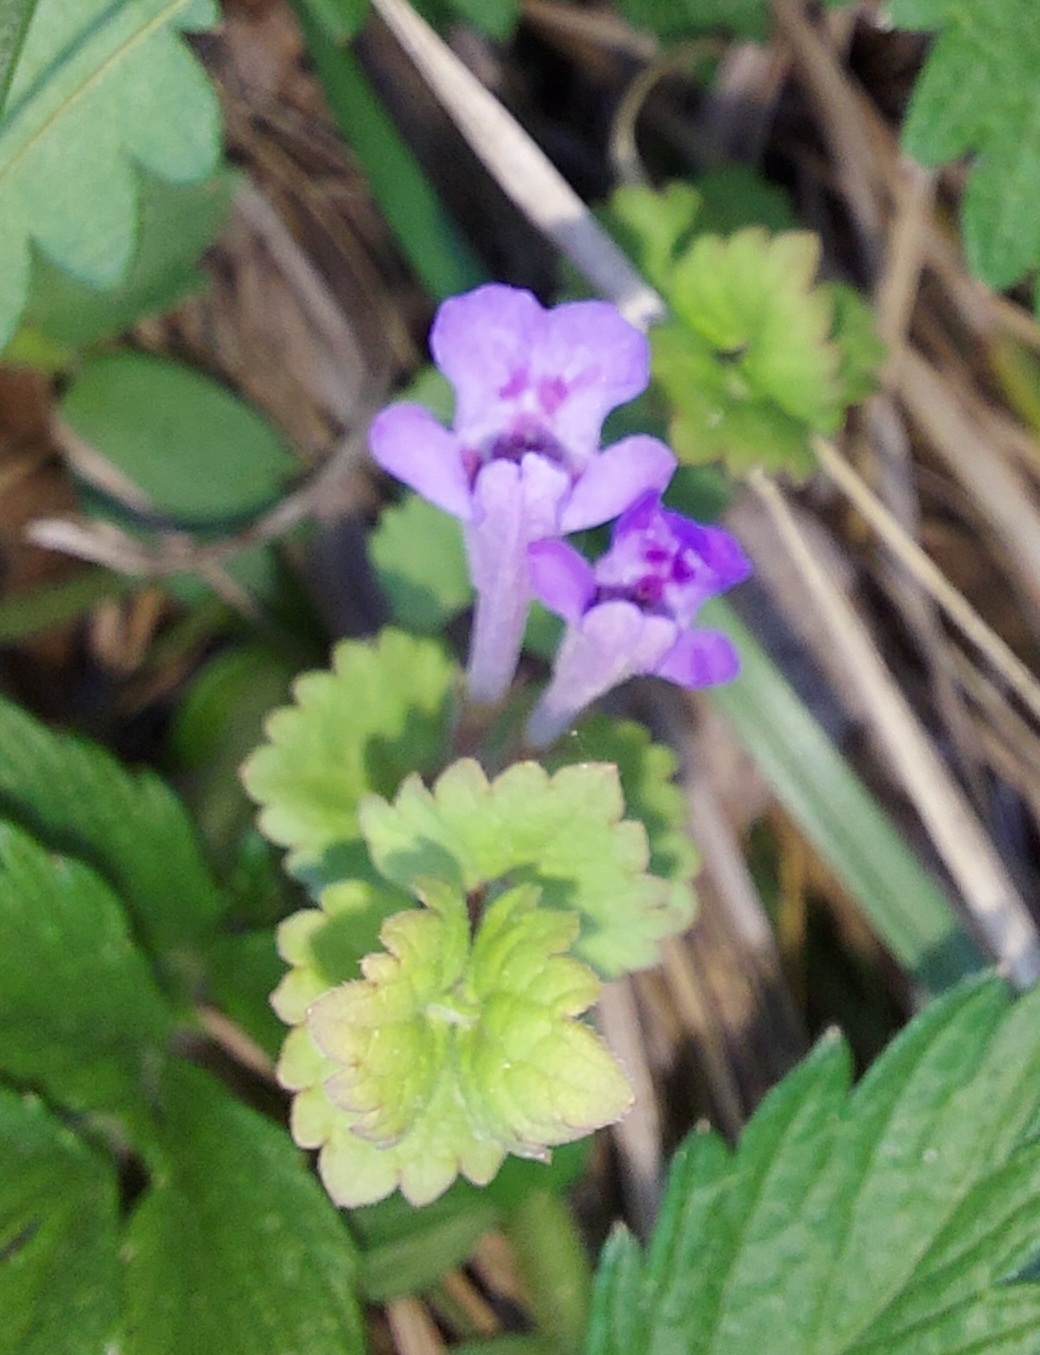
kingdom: Plantae
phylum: Tracheophyta
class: Magnoliopsida
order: Lamiales
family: Lamiaceae
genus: Glechoma
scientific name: Glechoma hederacea
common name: Ground ivy
